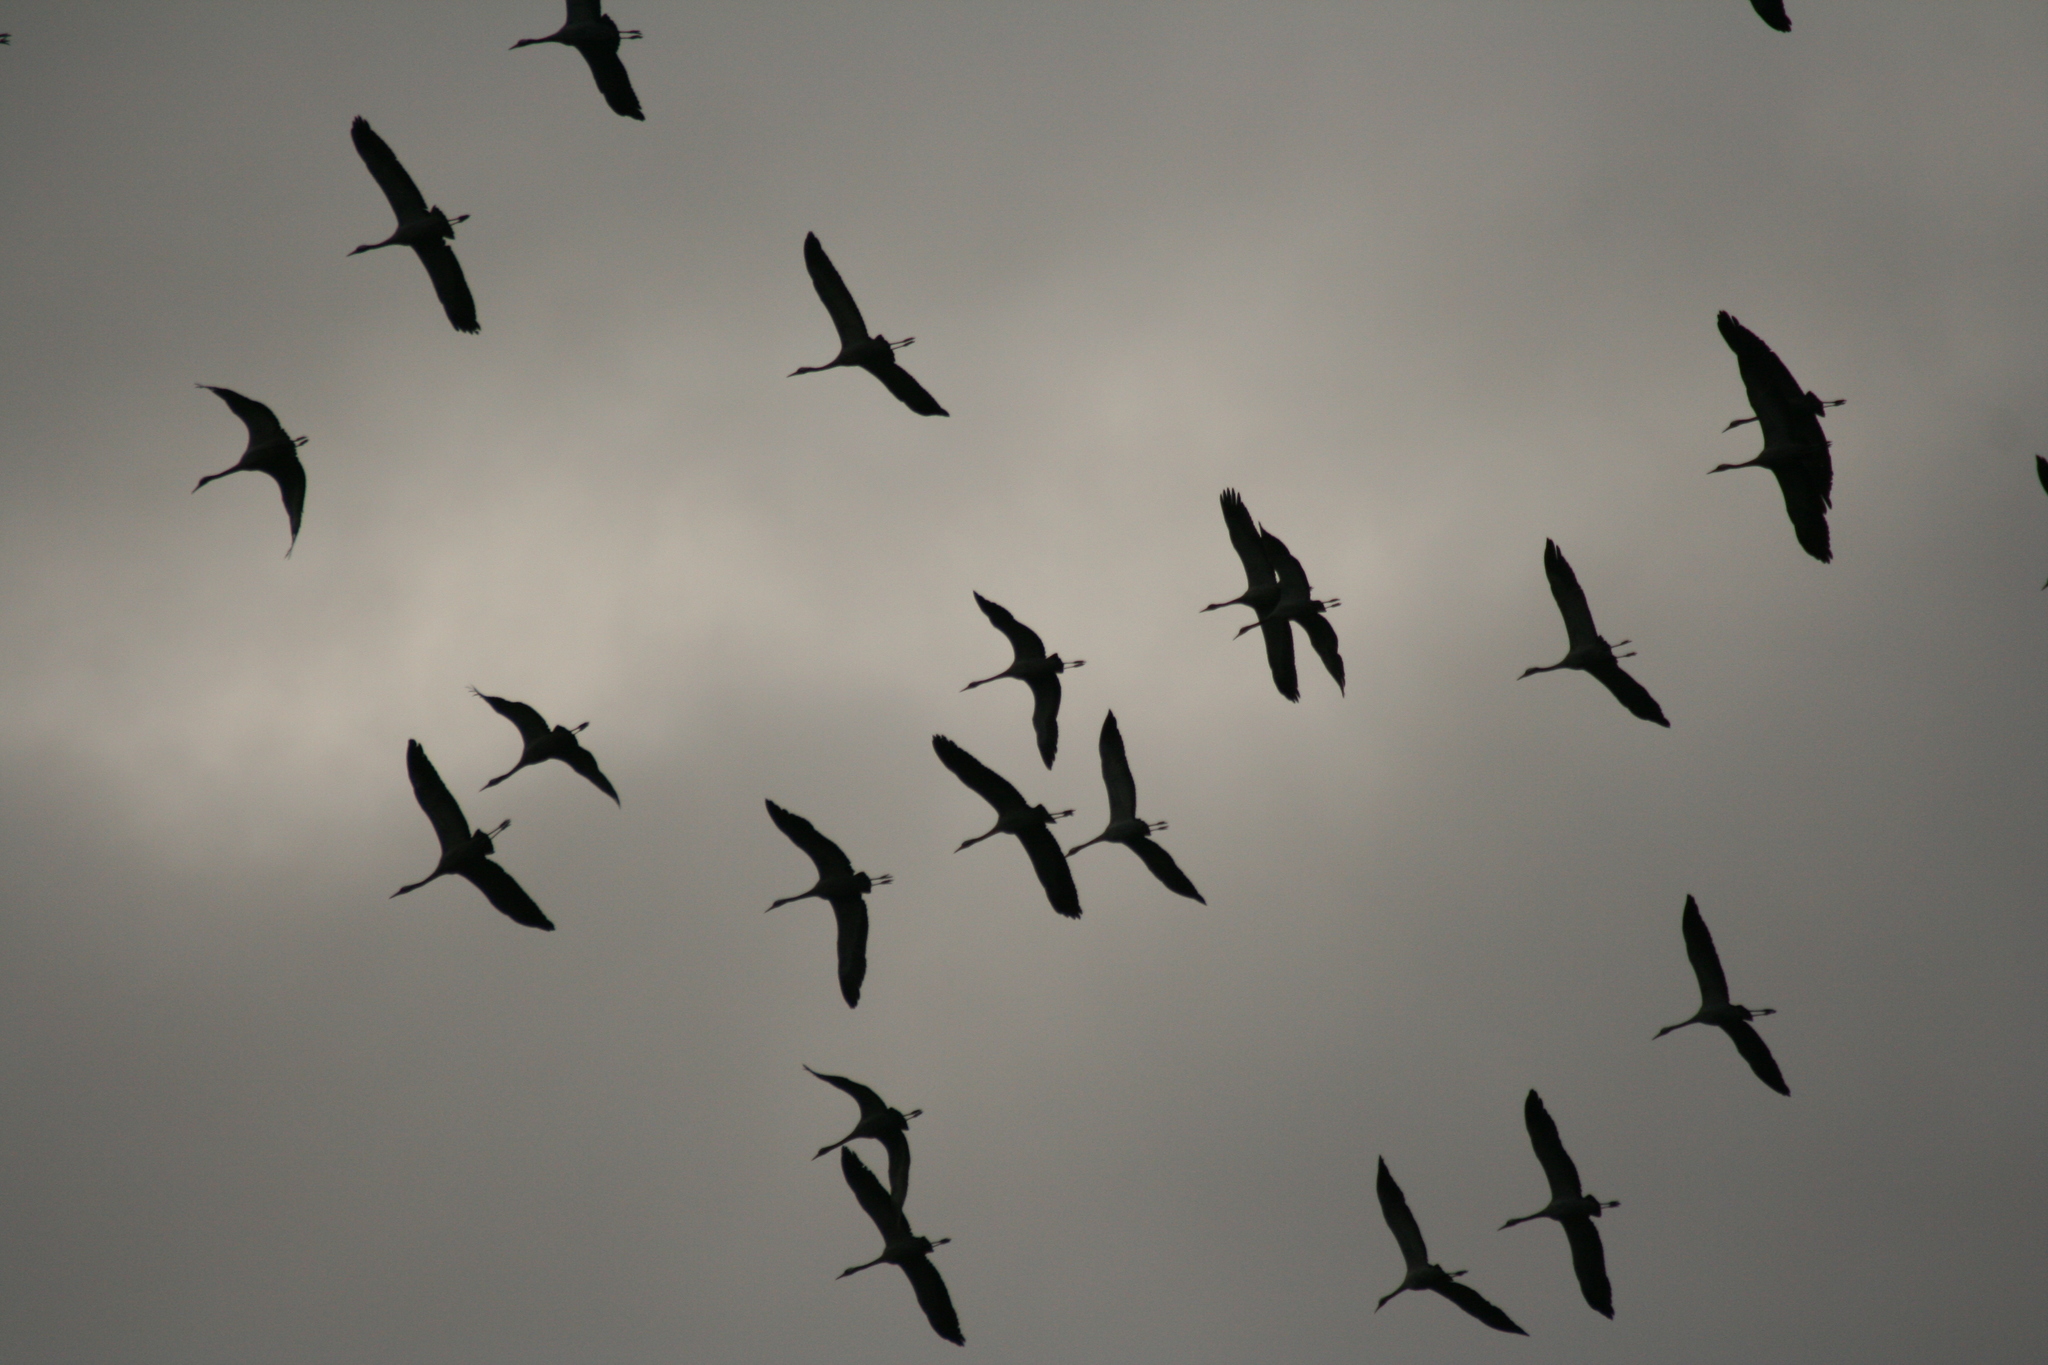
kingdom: Animalia
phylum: Chordata
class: Aves
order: Gruiformes
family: Gruidae
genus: Grus
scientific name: Grus grus
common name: Common crane
